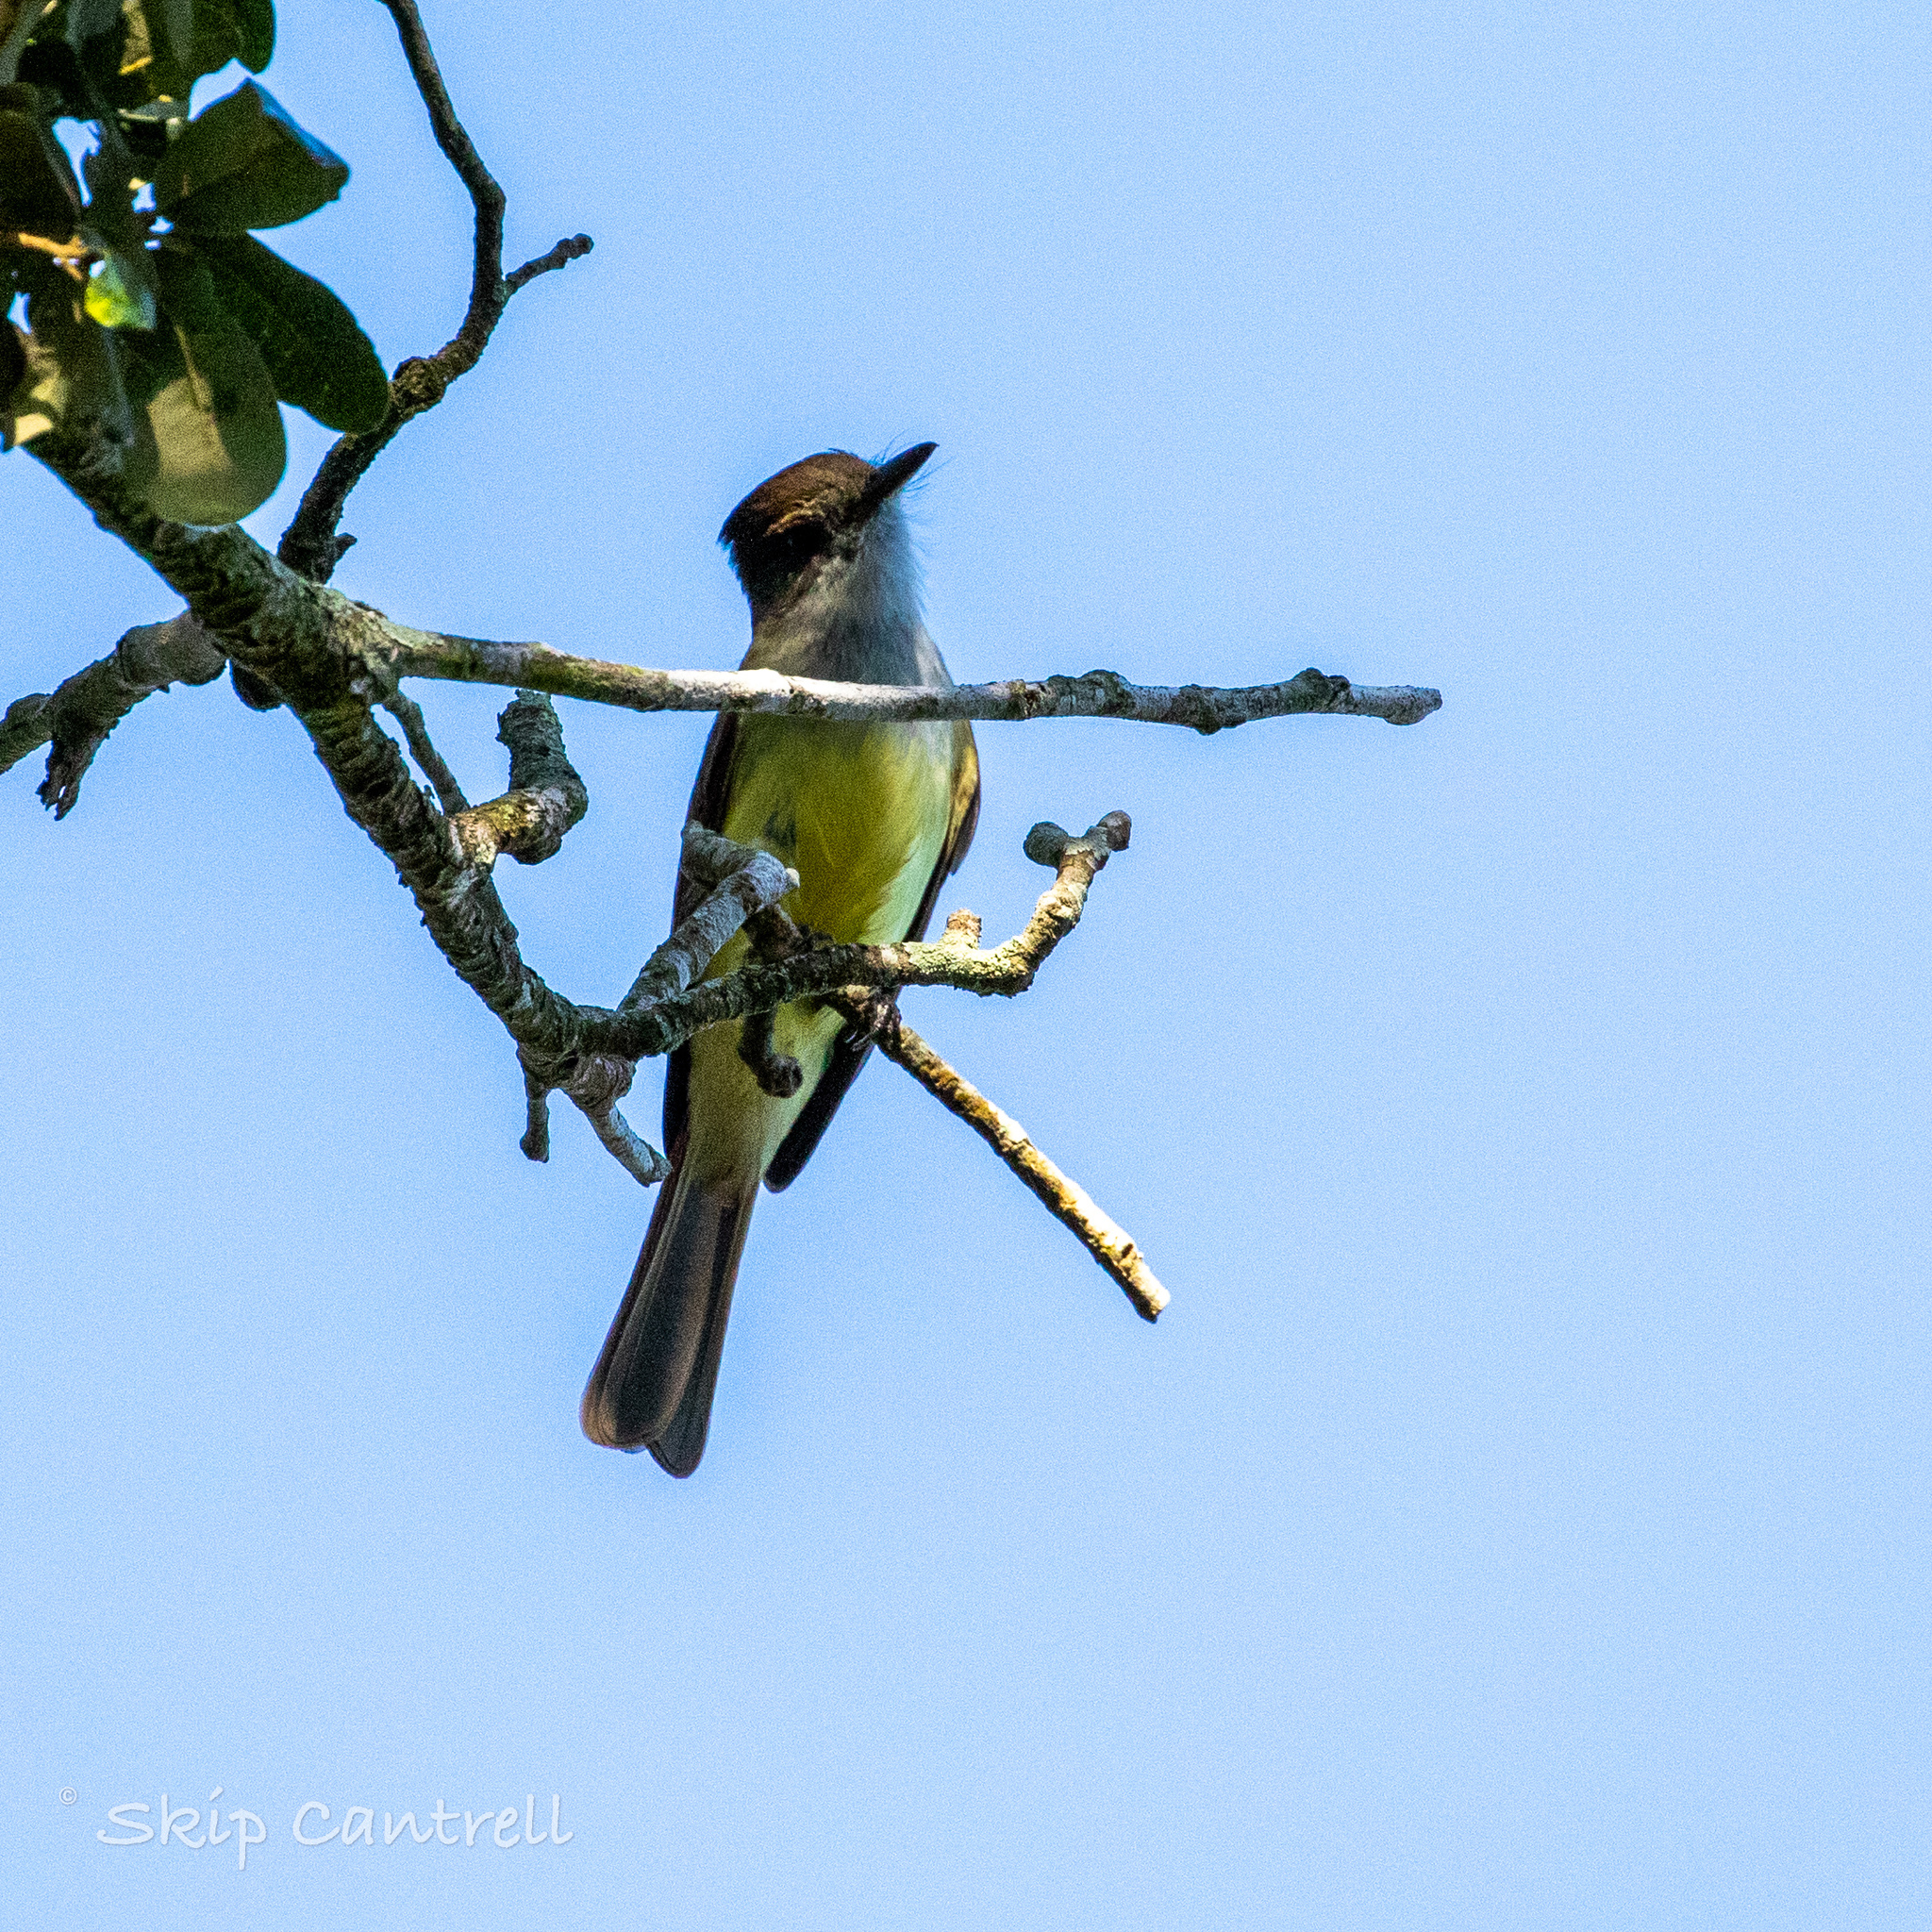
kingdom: Animalia
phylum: Chordata
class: Aves
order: Passeriformes
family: Tyrannidae
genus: Myiarchus
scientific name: Myiarchus tuberculifer
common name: Dusky-capped flycatcher
